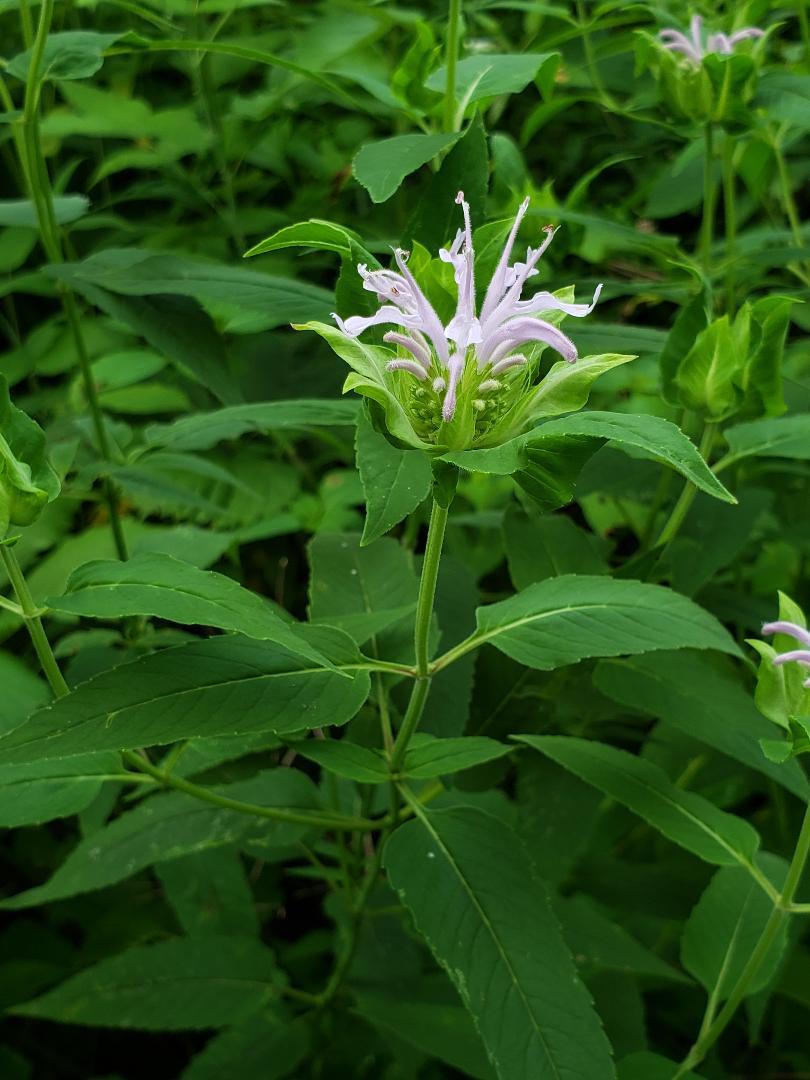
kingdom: Plantae
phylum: Tracheophyta
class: Magnoliopsida
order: Lamiales
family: Lamiaceae
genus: Monarda
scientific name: Monarda fistulosa
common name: Purple beebalm
